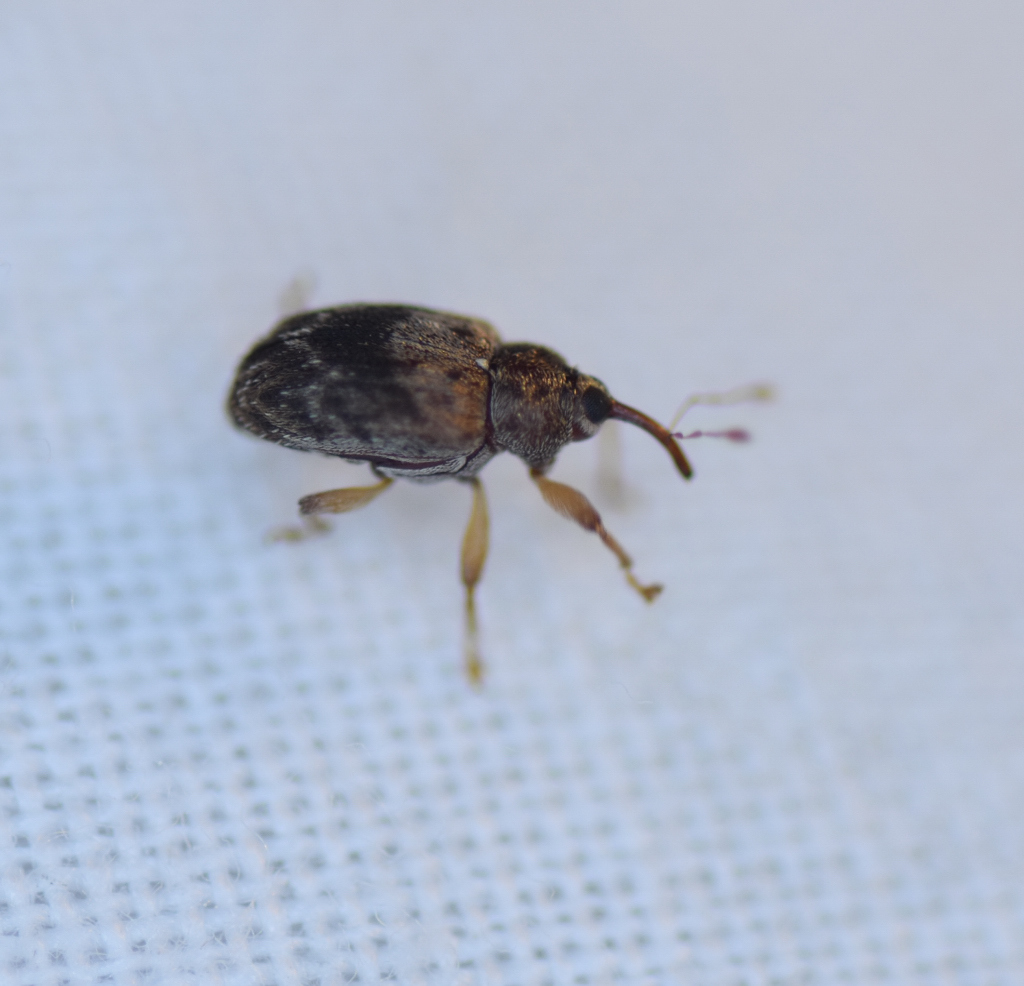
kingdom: Animalia
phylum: Arthropoda
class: Insecta
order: Coleoptera
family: Curculionidae
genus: Thysanocnemis
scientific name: Thysanocnemis bischoffi
